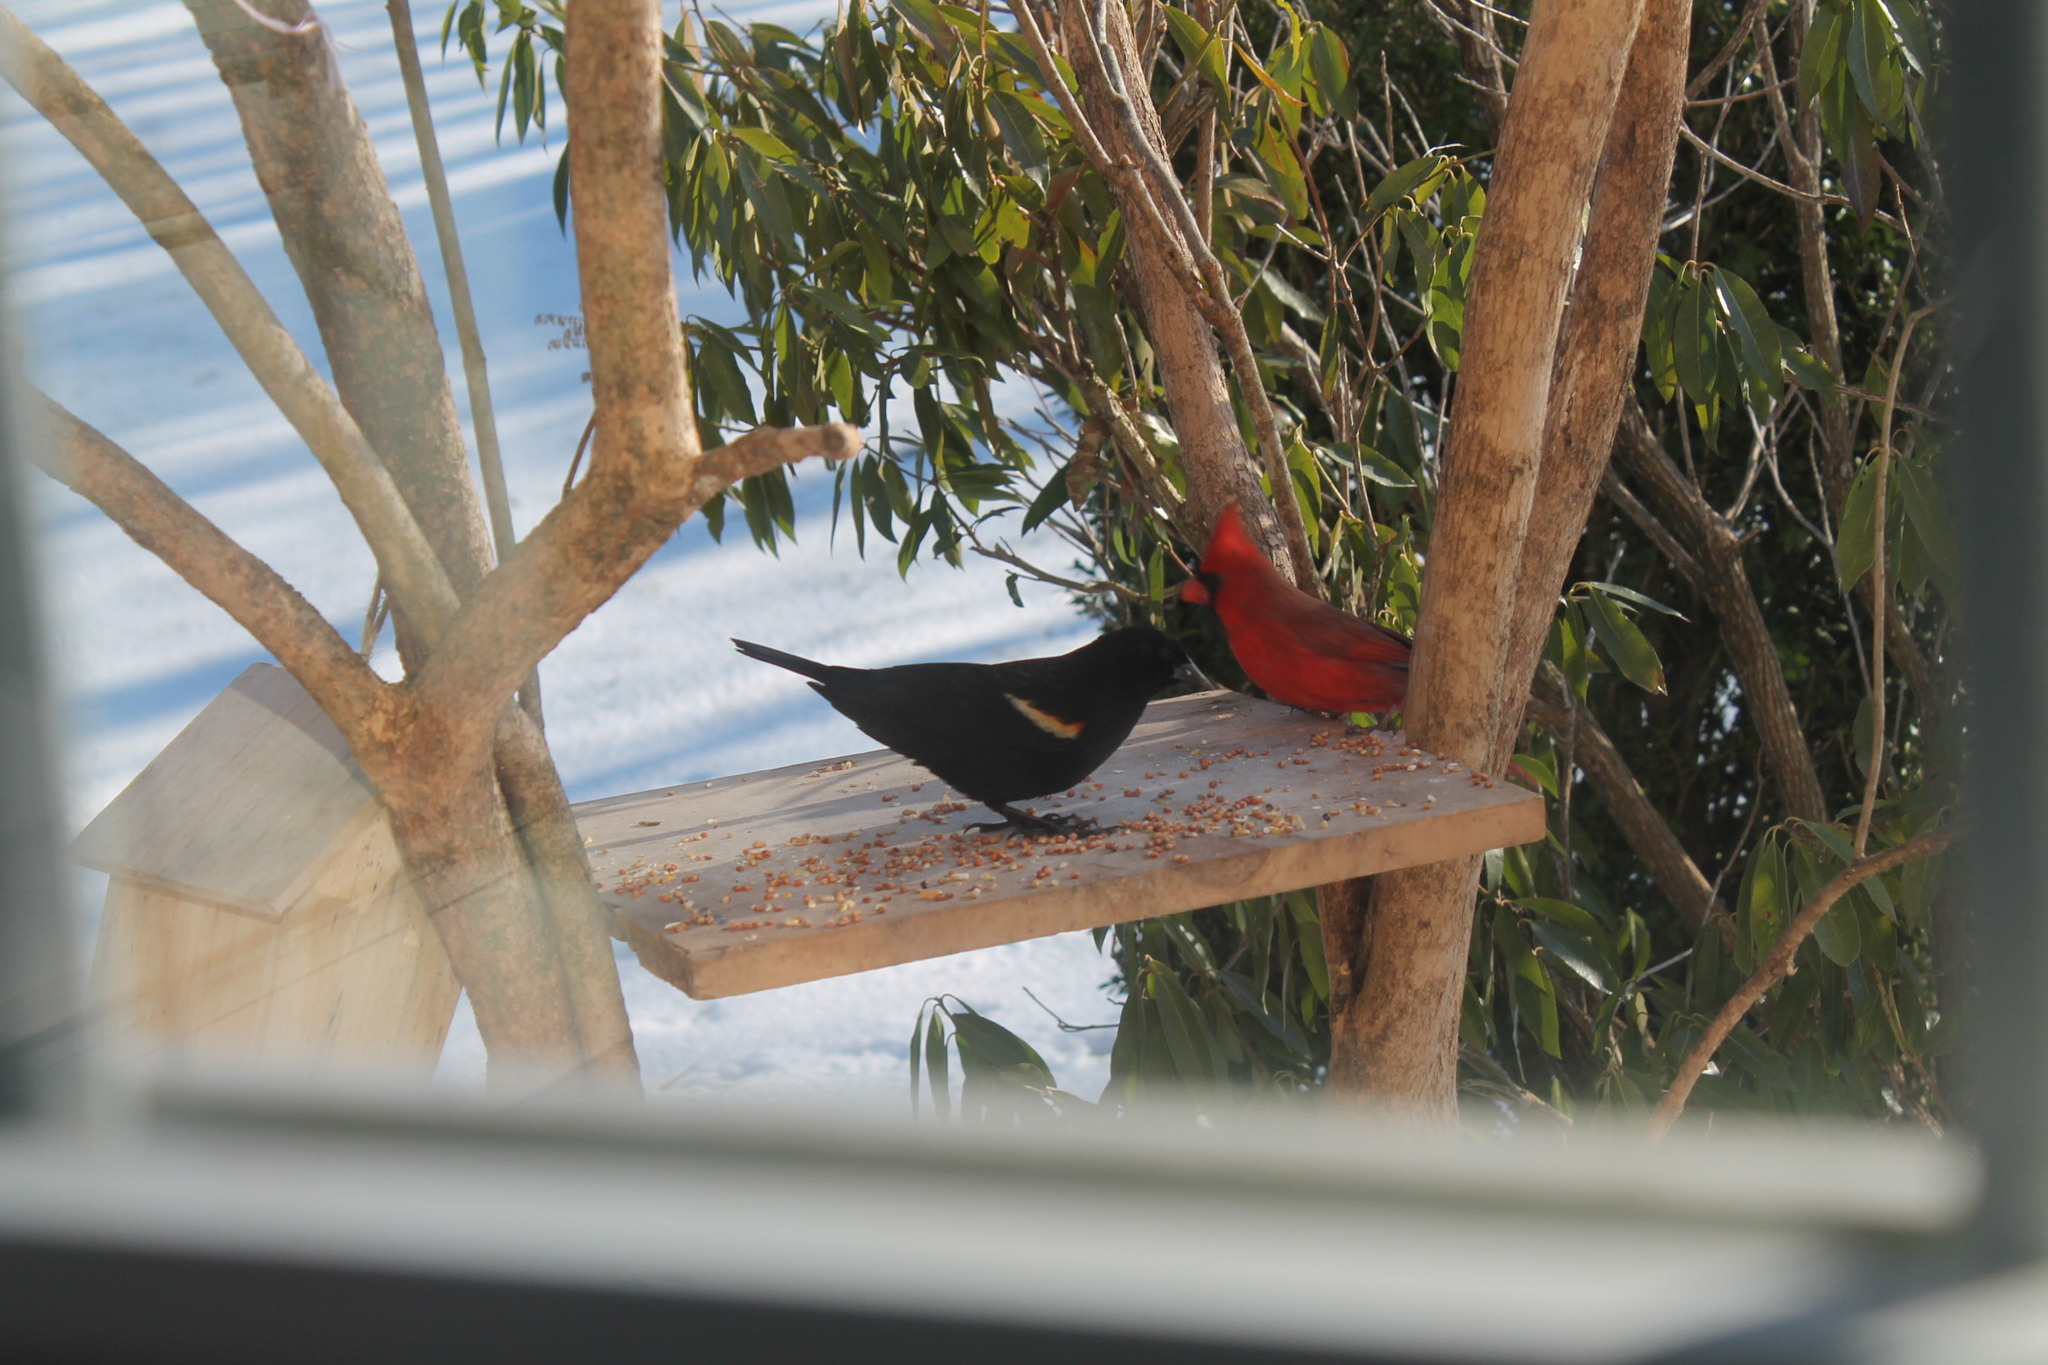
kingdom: Animalia
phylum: Chordata
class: Aves
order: Passeriformes
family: Icteridae
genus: Agelaius
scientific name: Agelaius phoeniceus
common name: Red-winged blackbird
